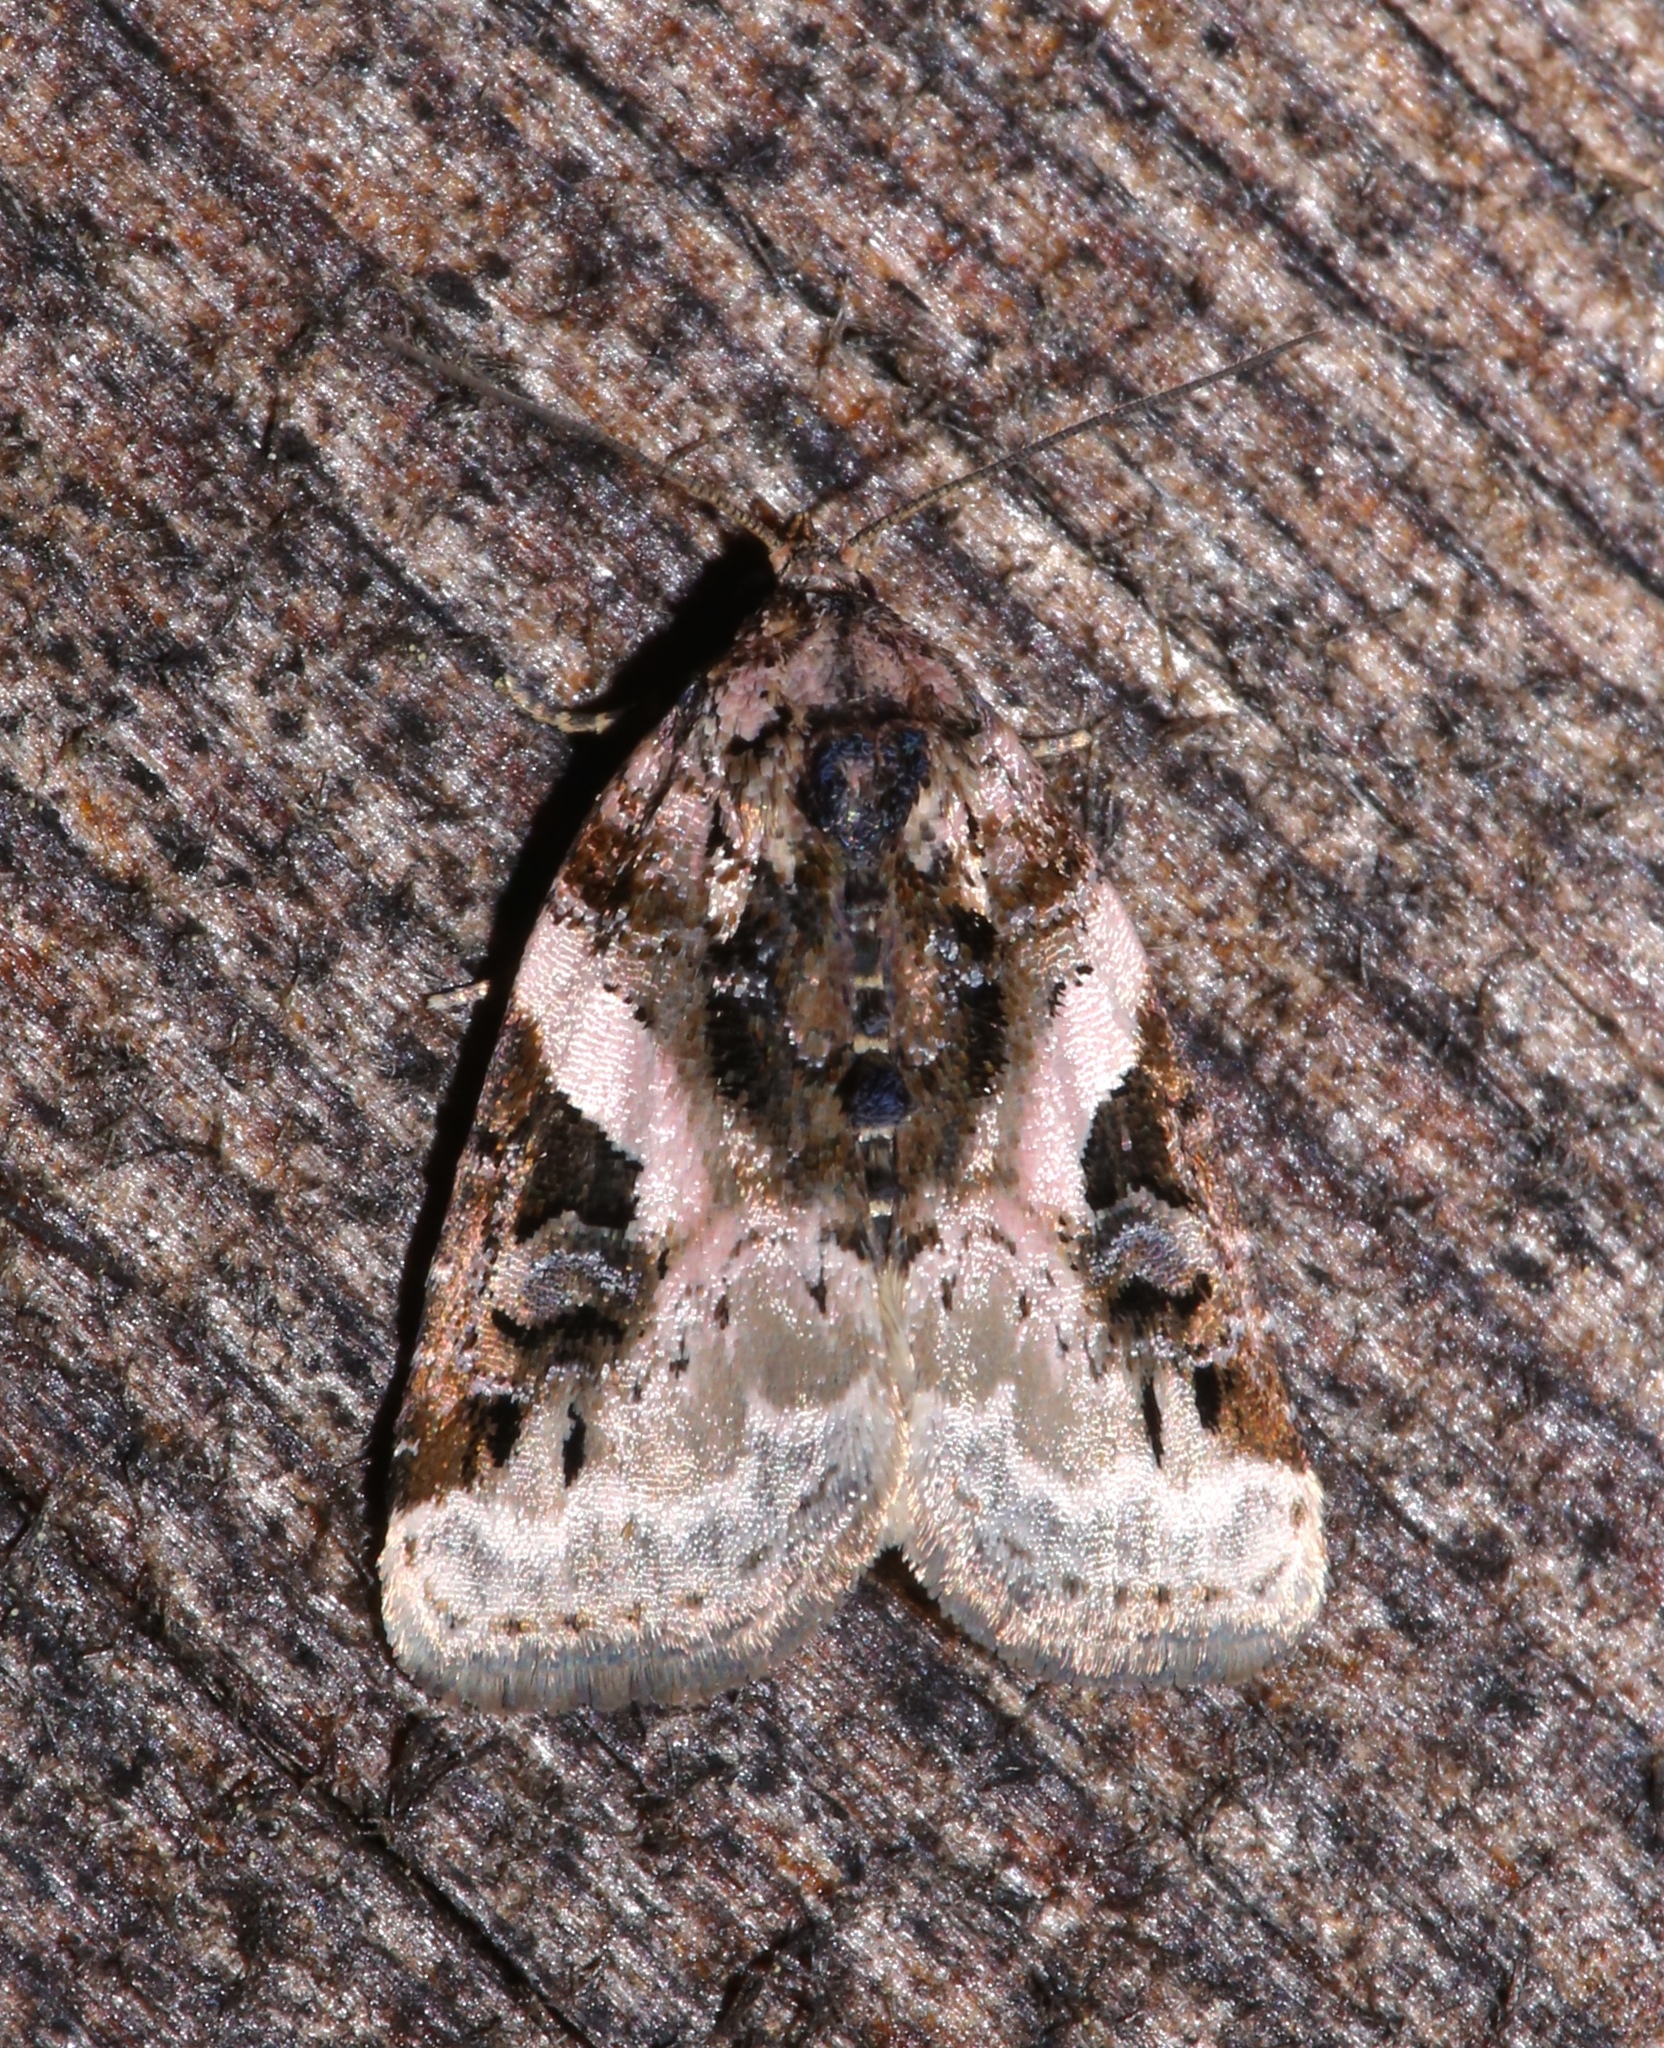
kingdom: Animalia
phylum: Arthropoda
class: Insecta
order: Lepidoptera
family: Noctuidae
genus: Pseudeustrotia
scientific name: Pseudeustrotia carneola
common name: Pink-barred lithacodia moth
